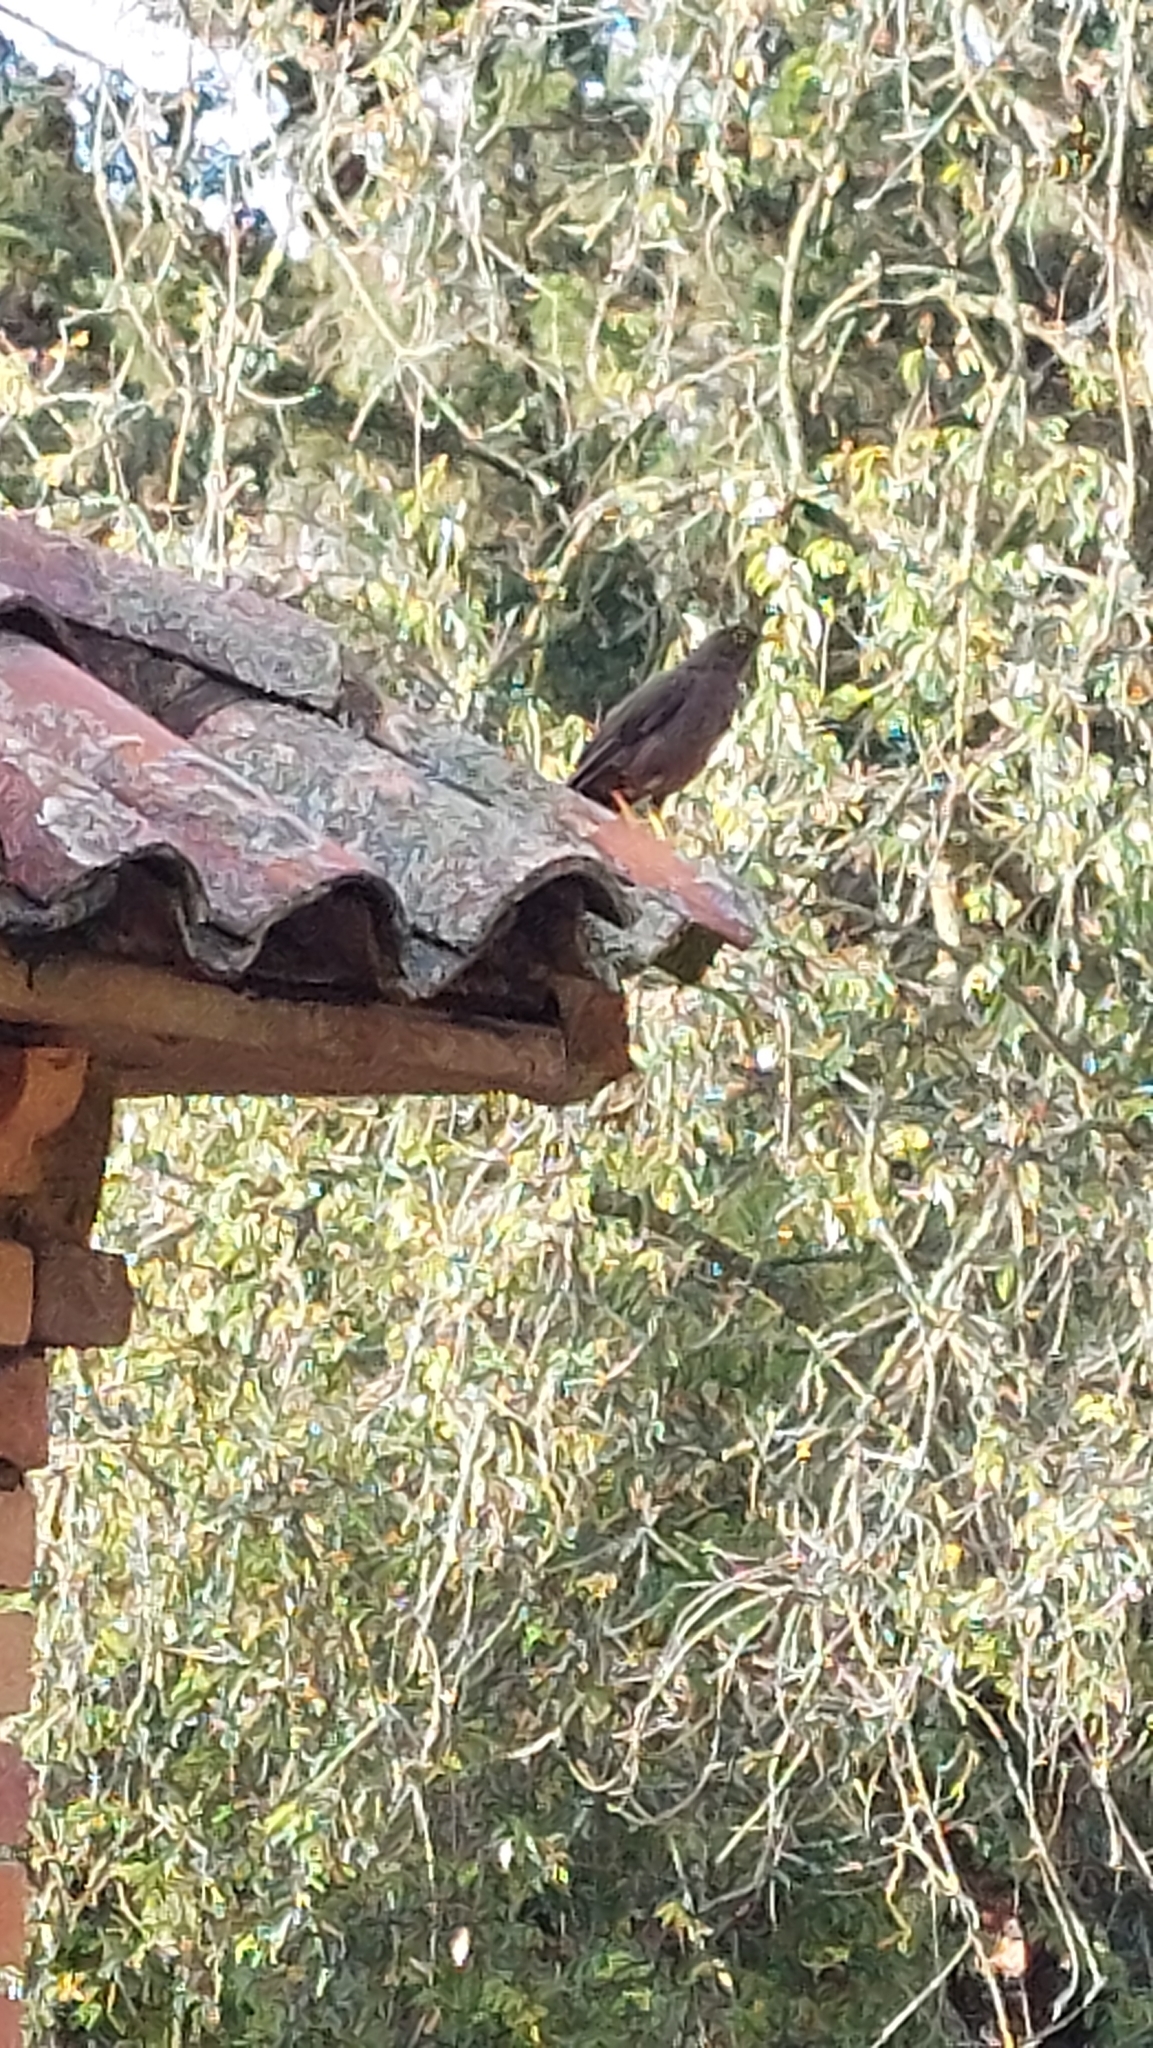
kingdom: Animalia
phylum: Chordata
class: Aves
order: Passeriformes
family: Turdidae
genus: Turdus
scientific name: Turdus fuscater
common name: Great thrush
